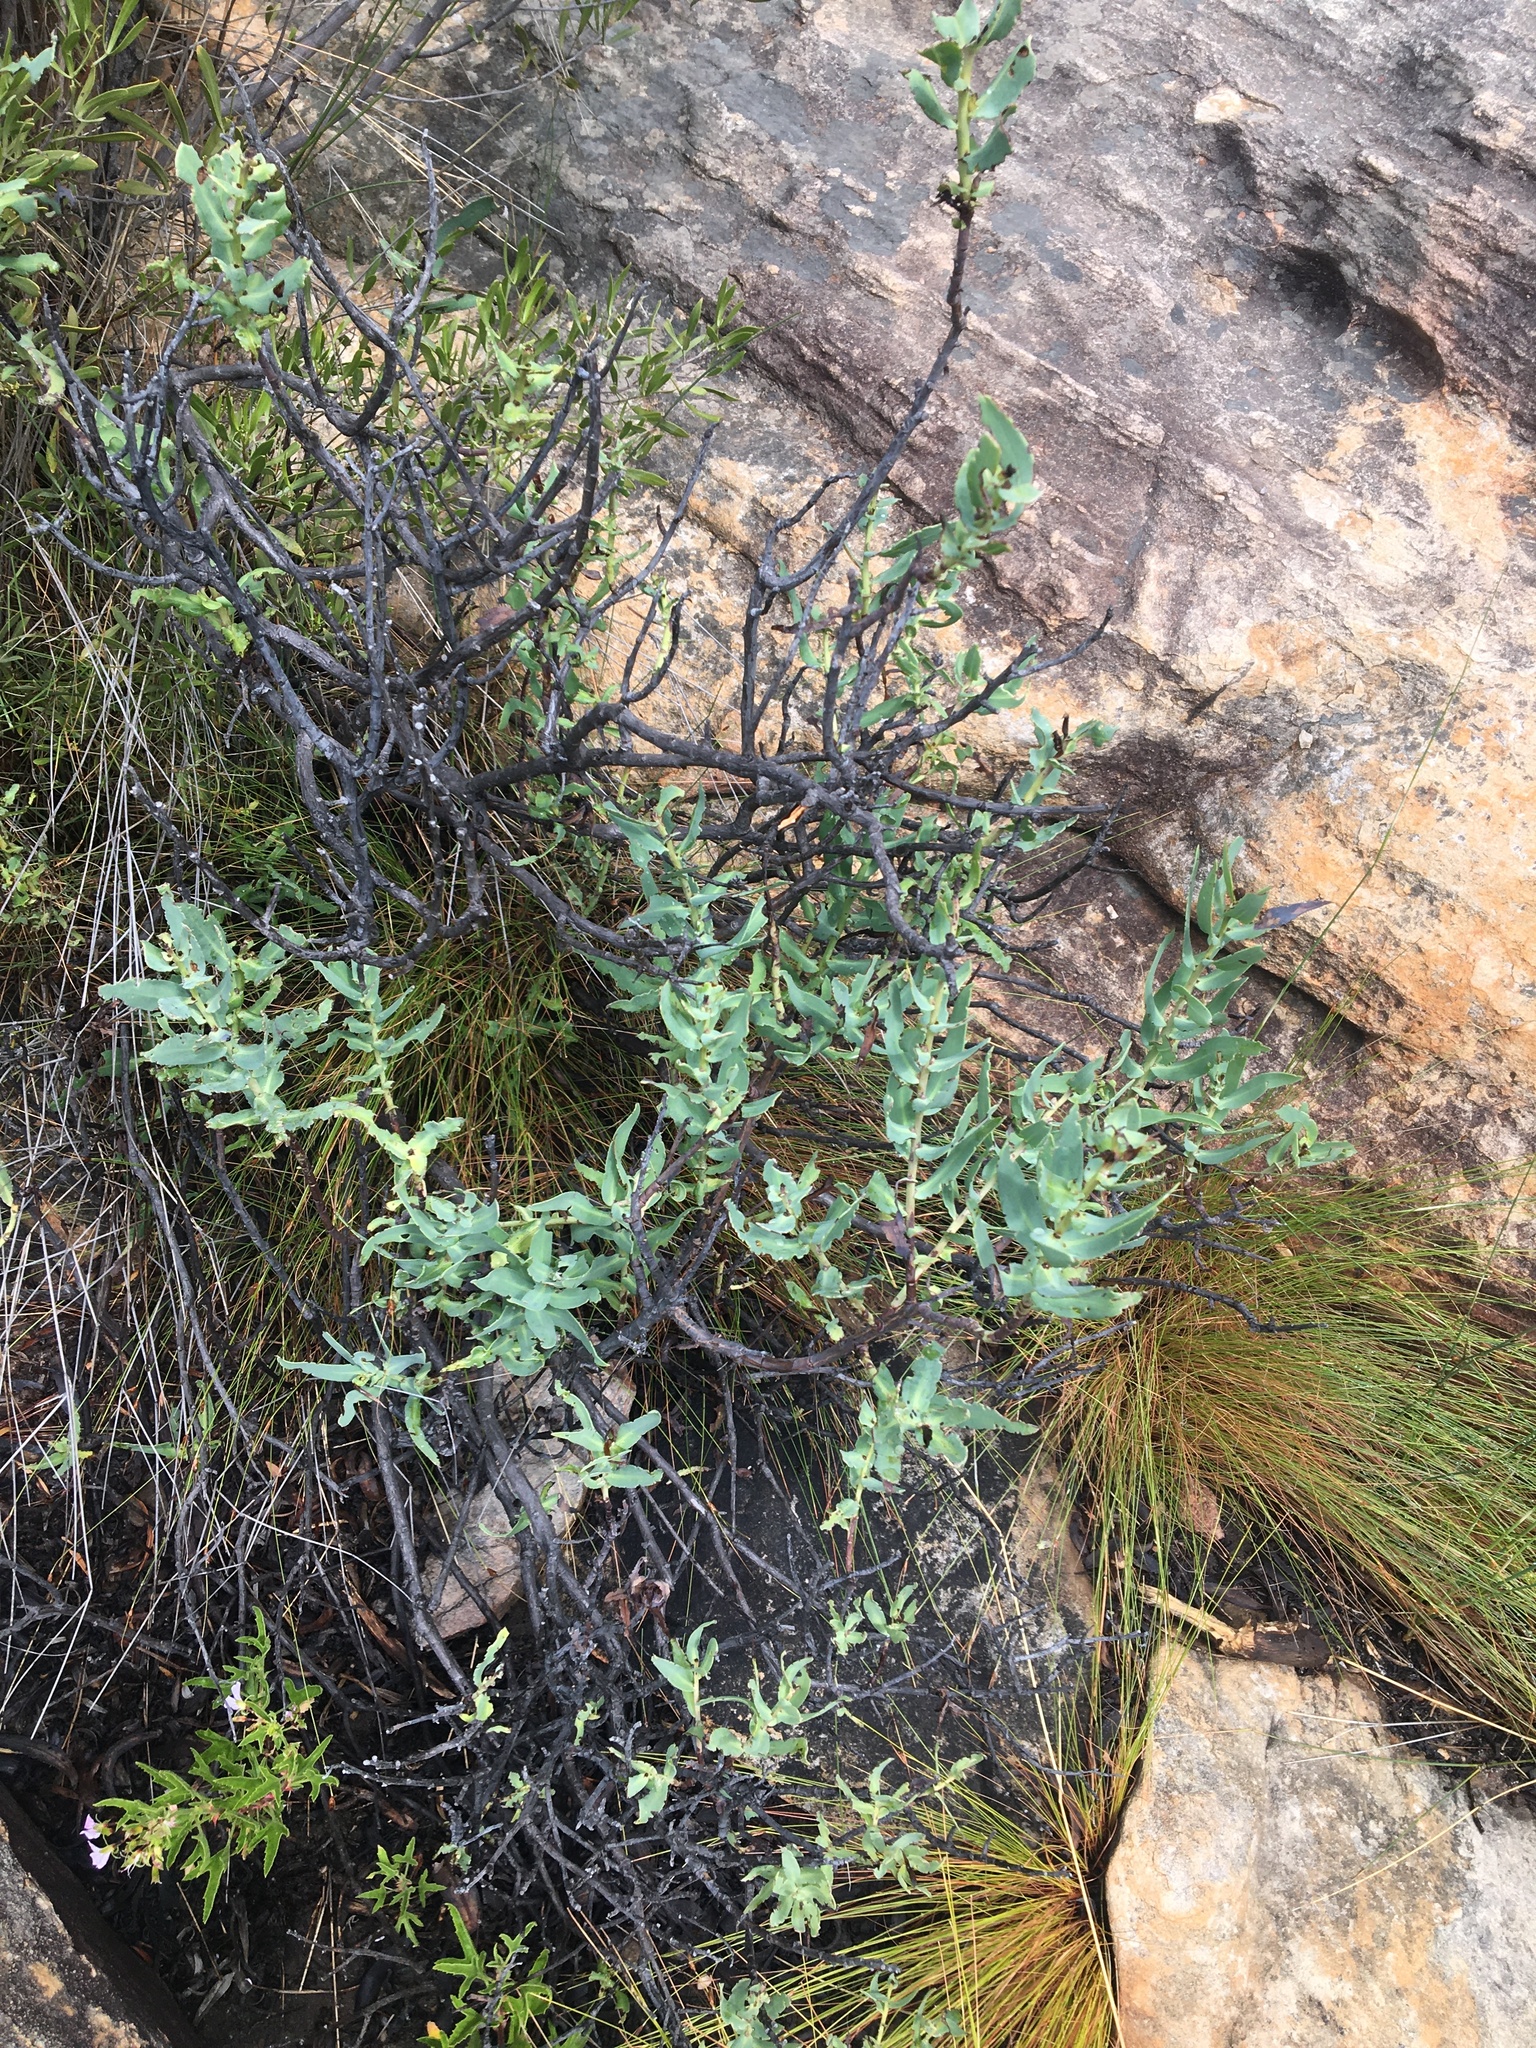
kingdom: Plantae
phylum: Tracheophyta
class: Magnoliopsida
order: Boraginales
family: Boraginaceae
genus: Lobostemon
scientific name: Lobostemon glaucophyllus
